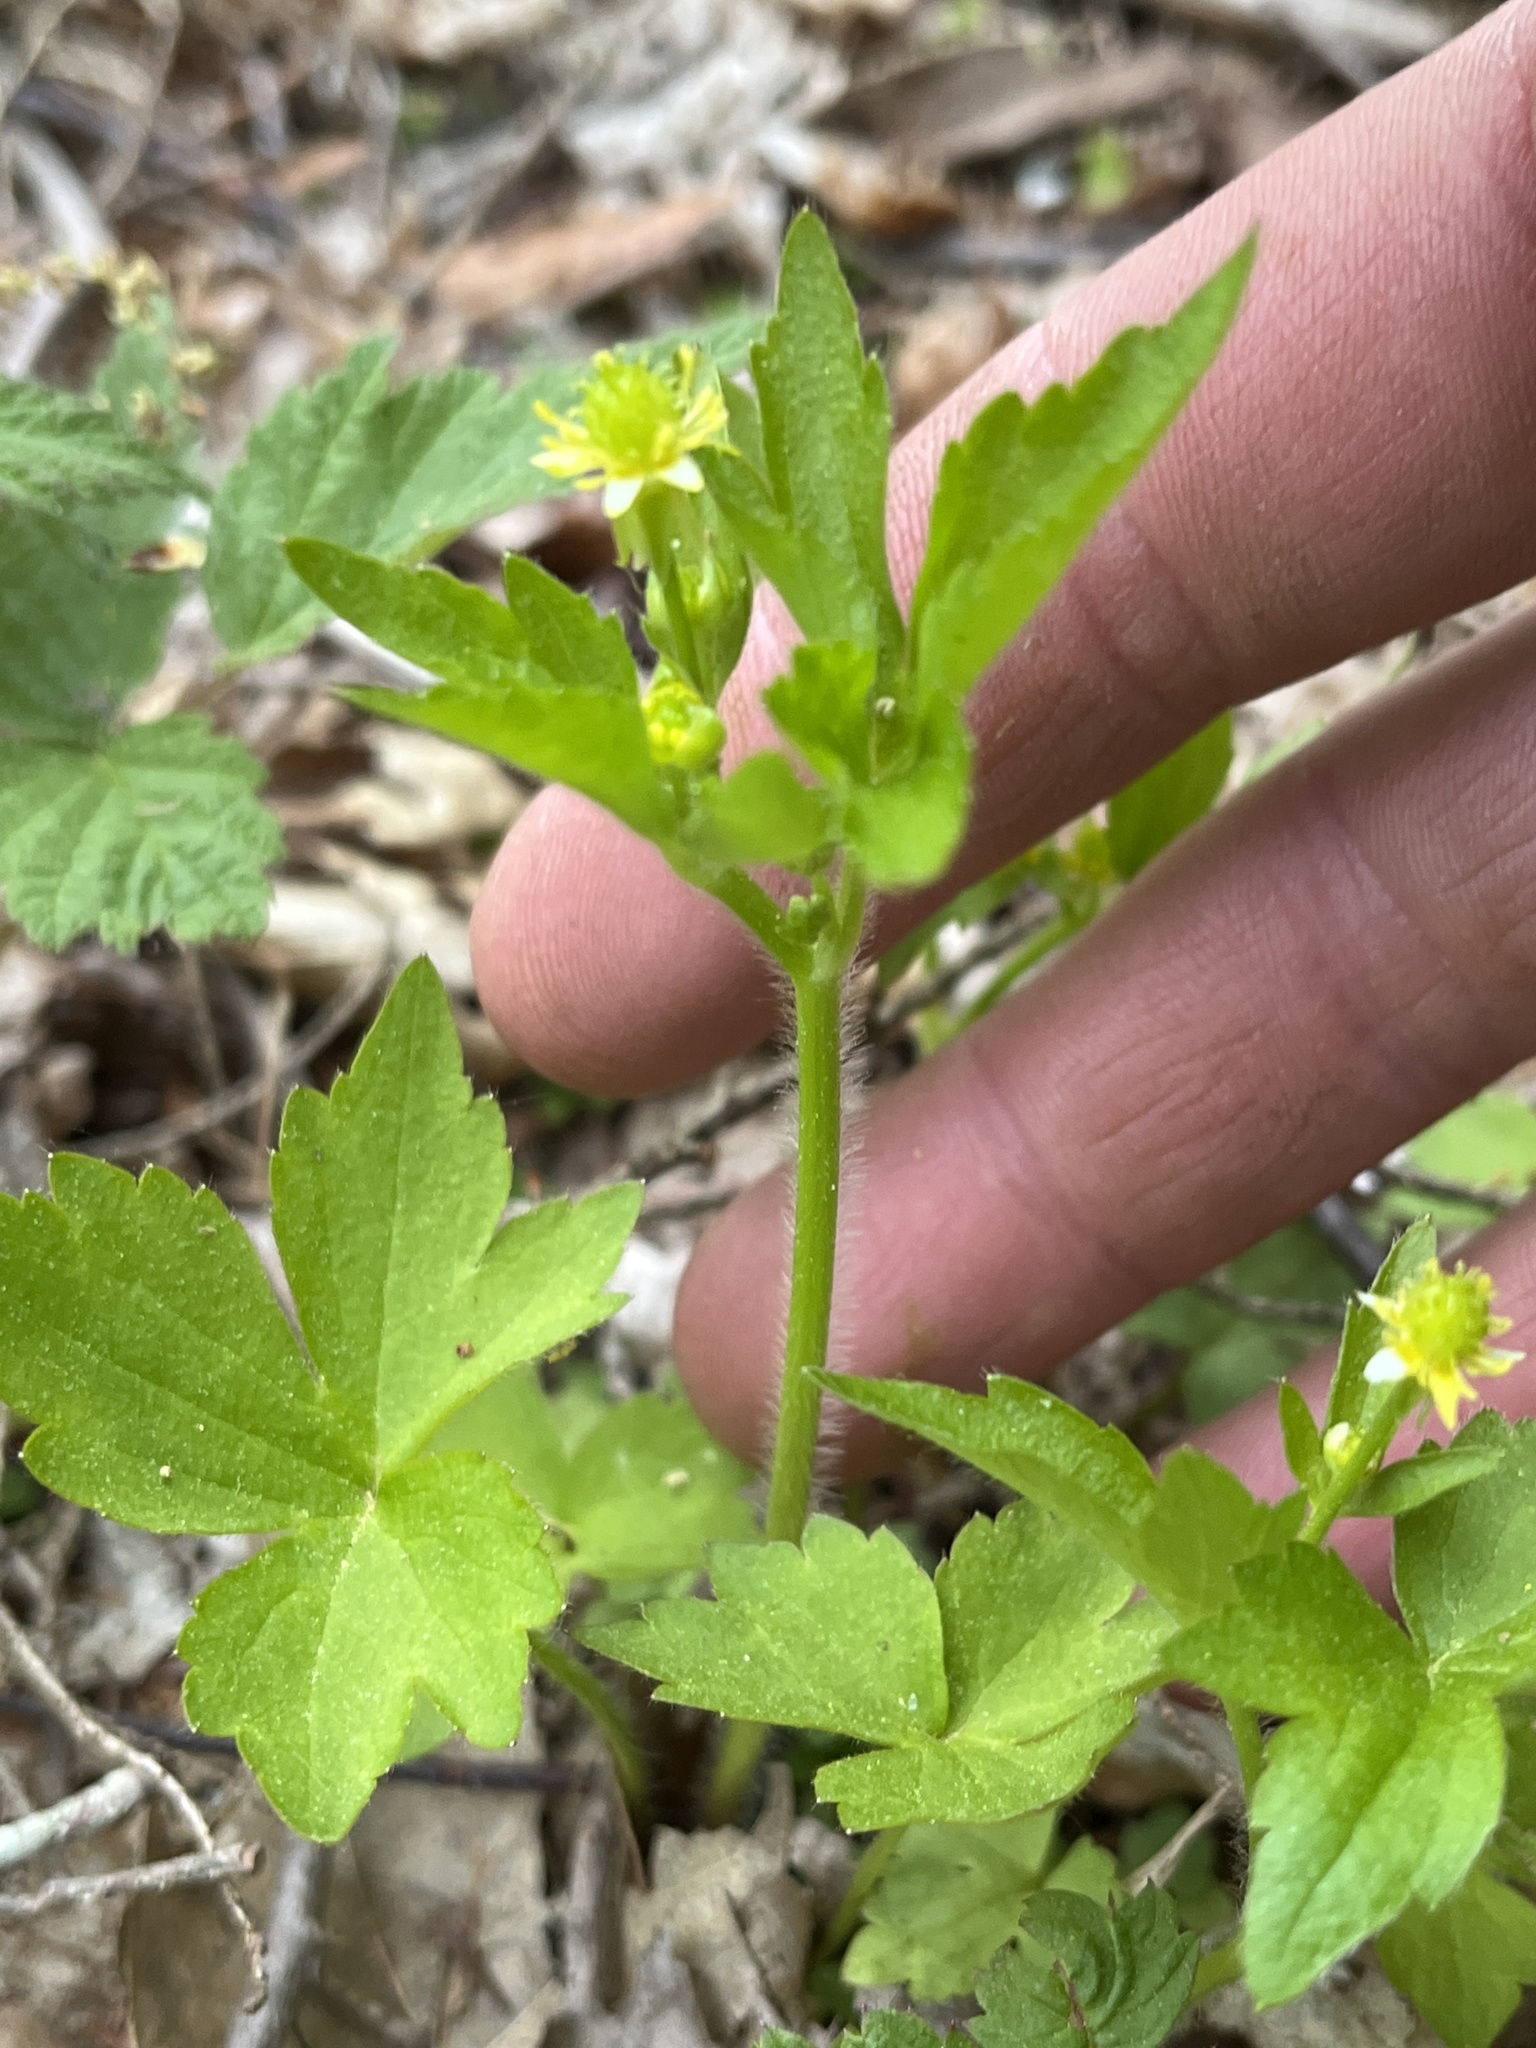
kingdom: Plantae
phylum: Tracheophyta
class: Magnoliopsida
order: Ranunculales
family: Ranunculaceae
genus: Ranunculus
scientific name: Ranunculus recurvatus
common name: Blisterwort
